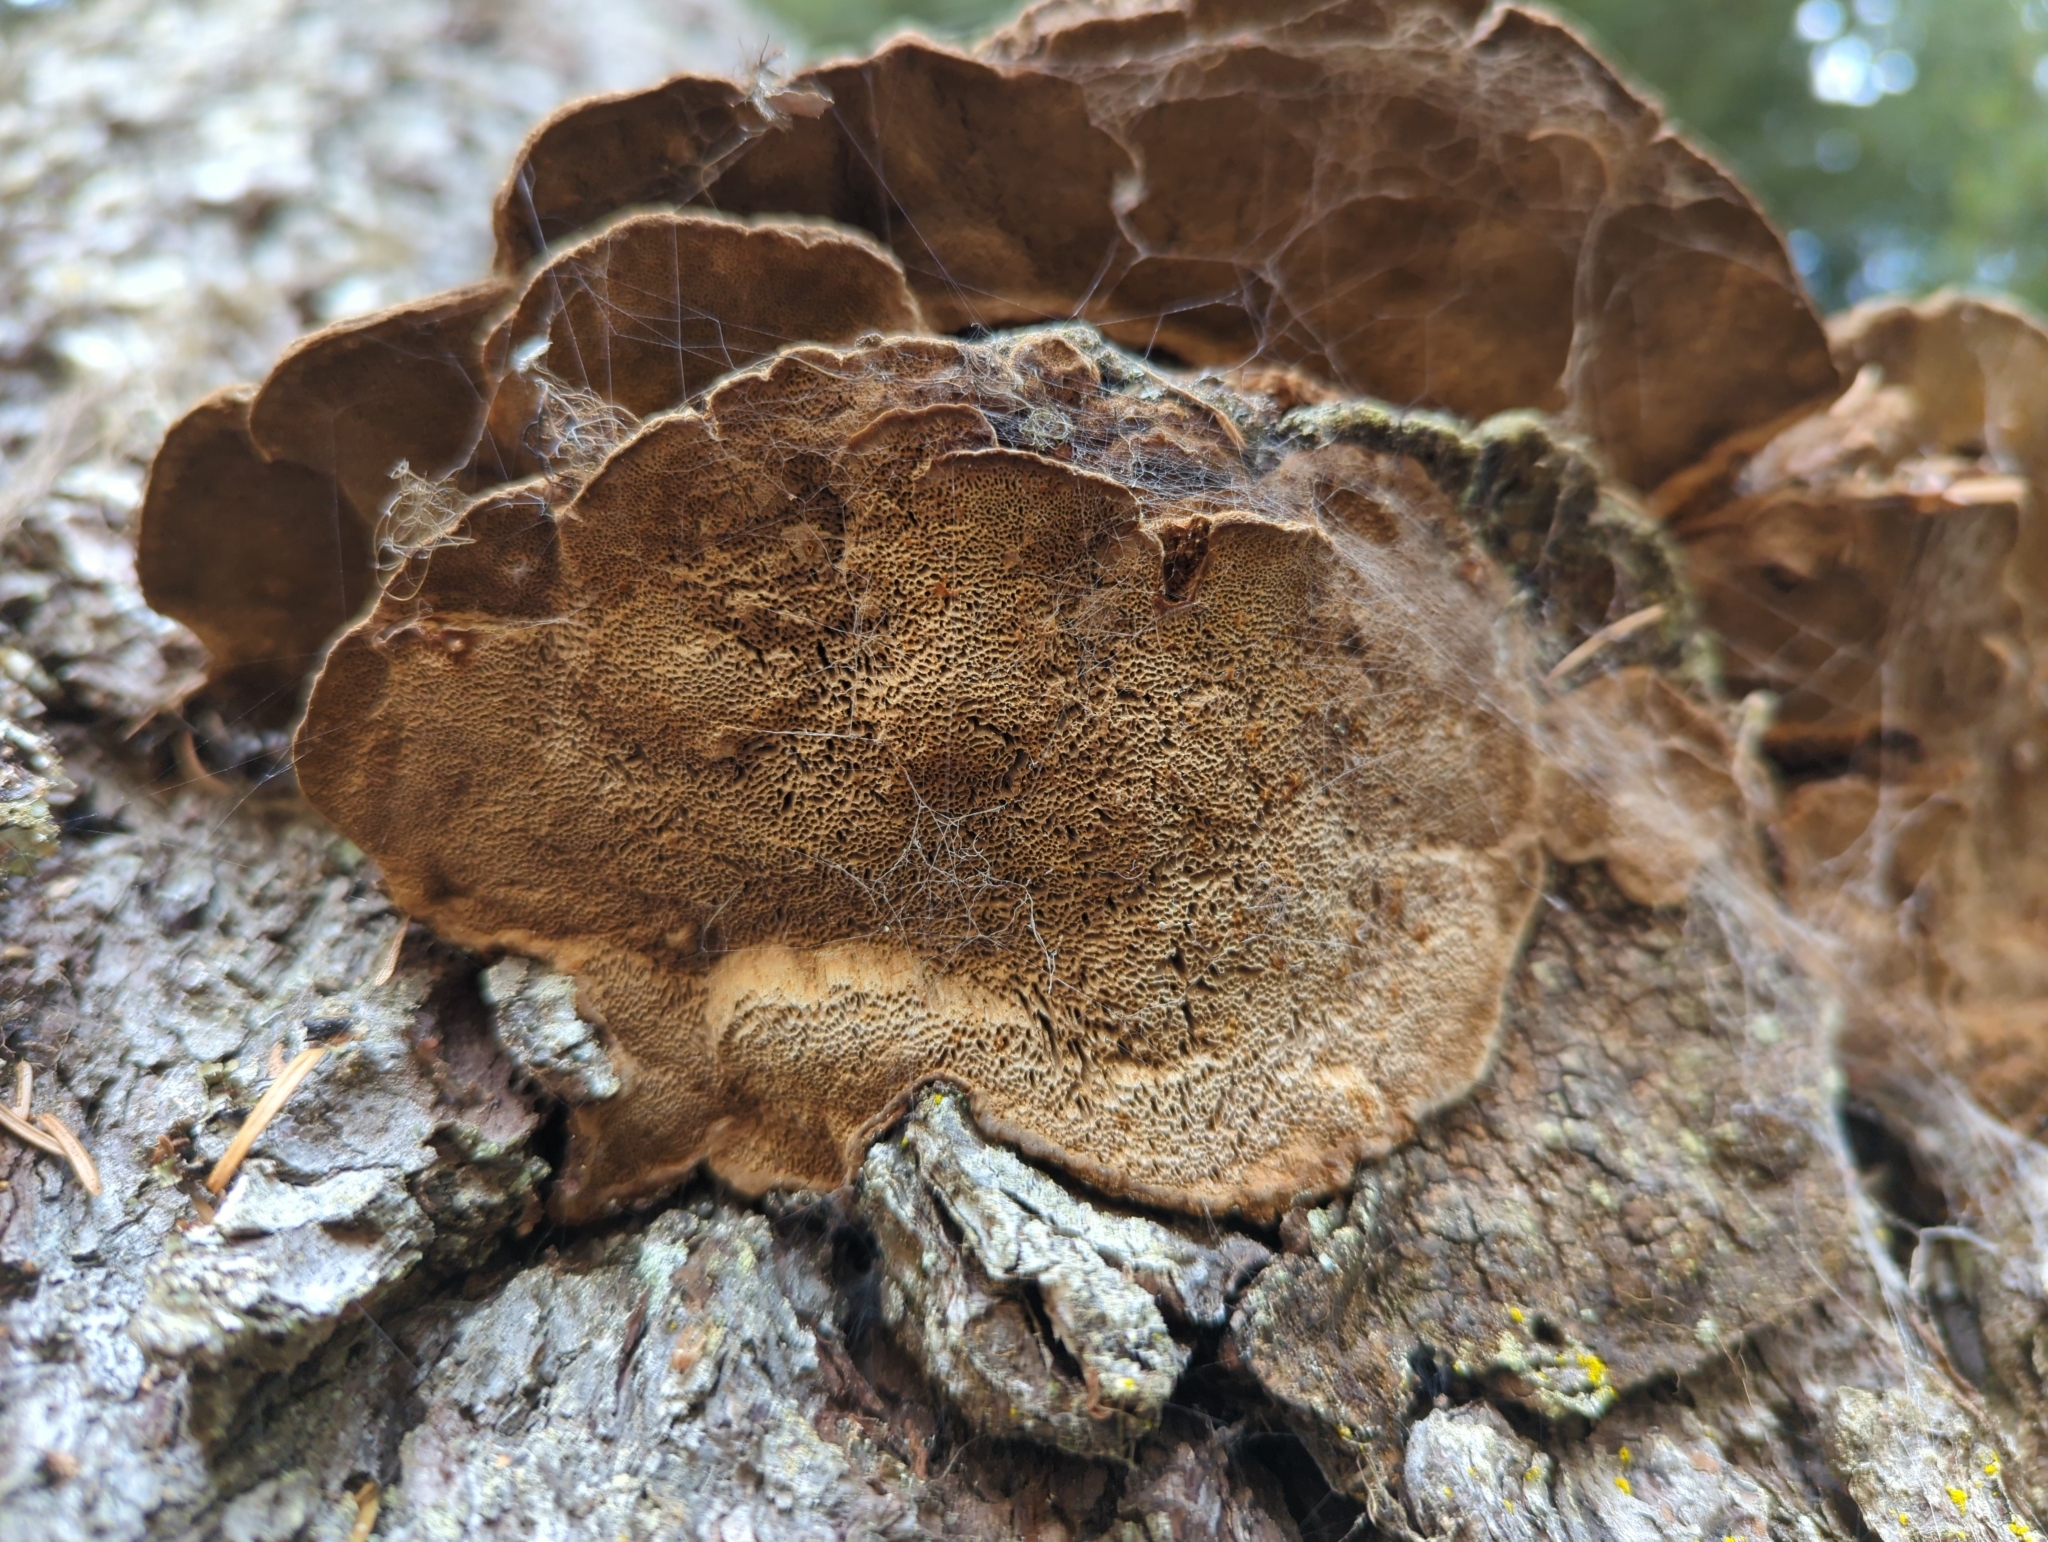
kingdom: Fungi
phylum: Basidiomycota
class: Agaricomycetes
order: Hymenochaetales
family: Hymenochaetaceae
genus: Porodaedalea
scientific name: Porodaedalea pini
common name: Pine bracket
